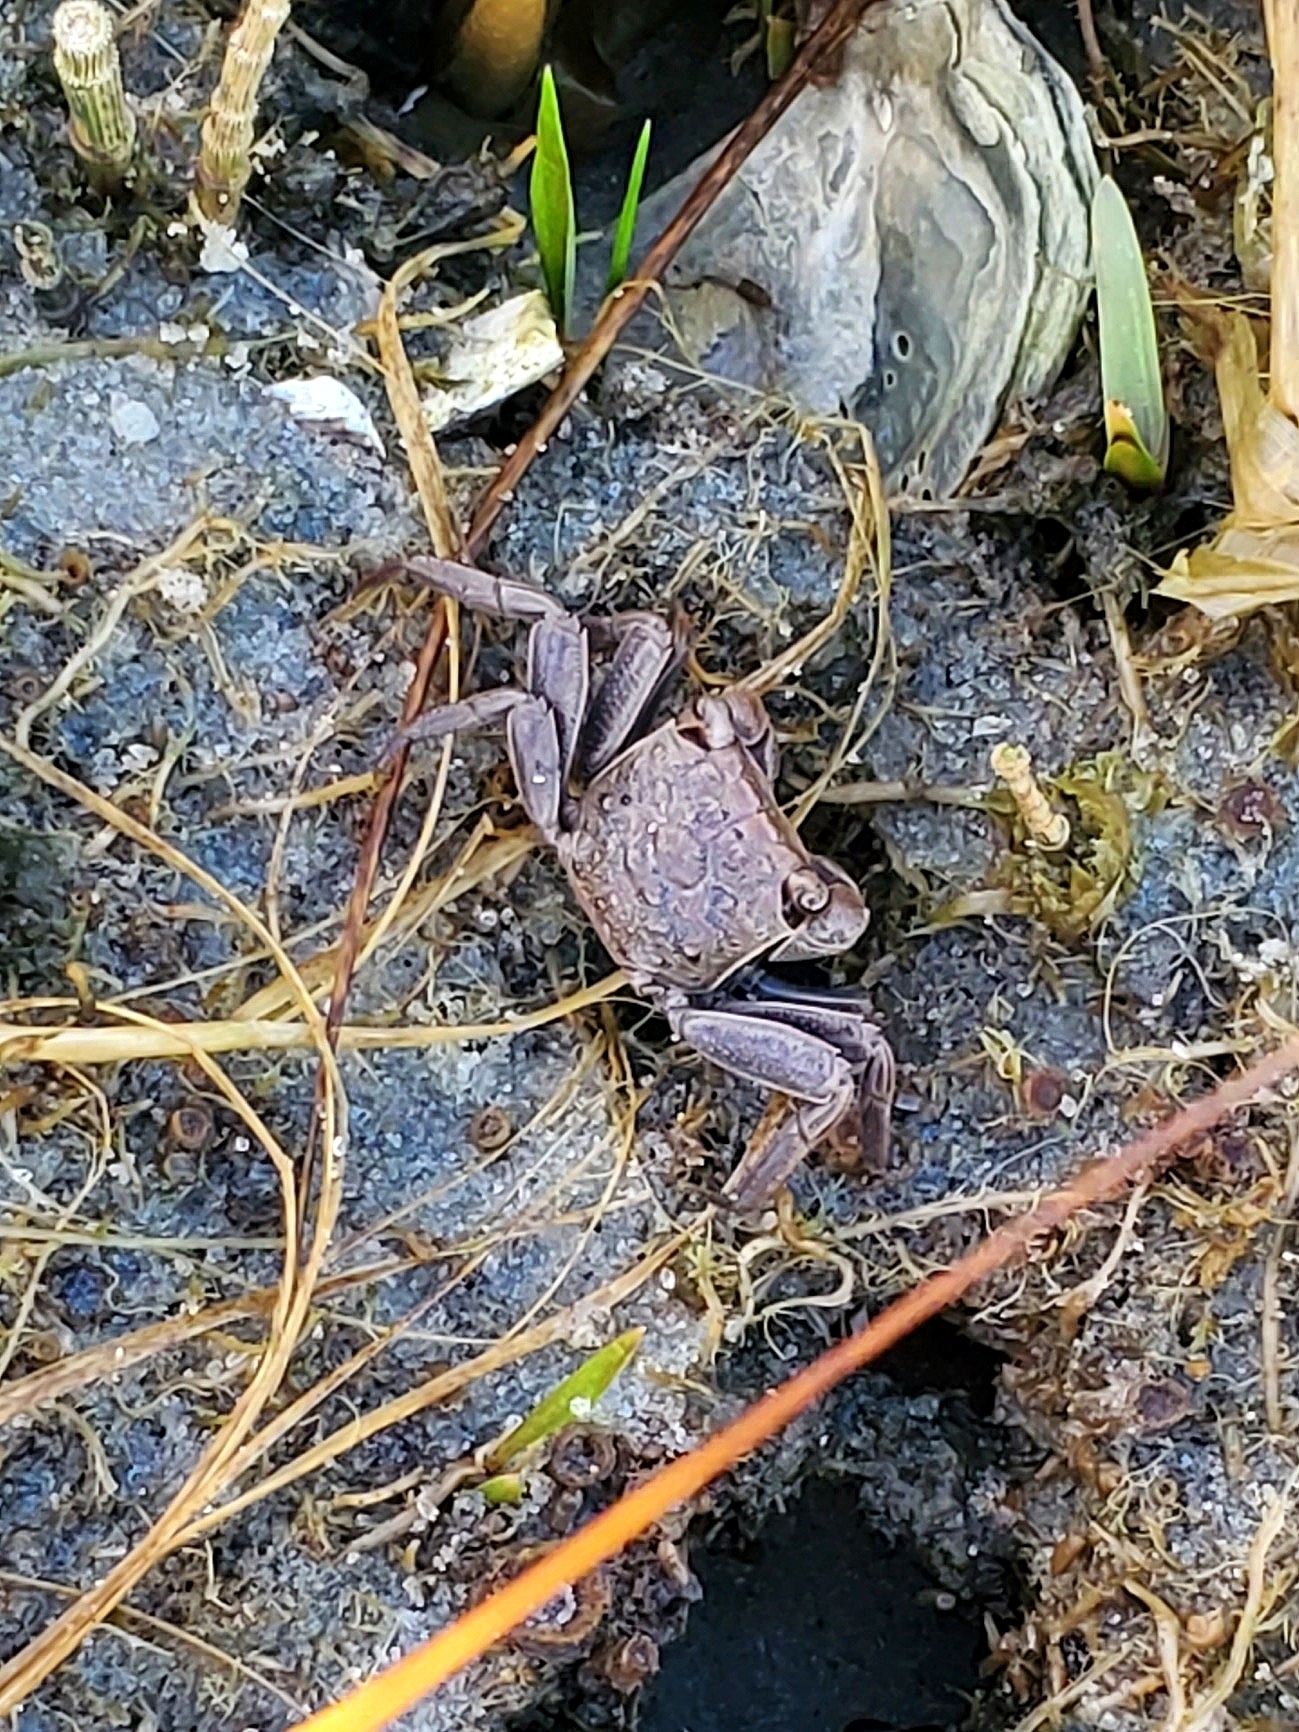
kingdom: Animalia
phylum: Arthropoda
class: Malacostraca
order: Decapoda
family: Sesarmidae
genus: Armases
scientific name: Armases cinereum
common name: Squareback marsh crab
